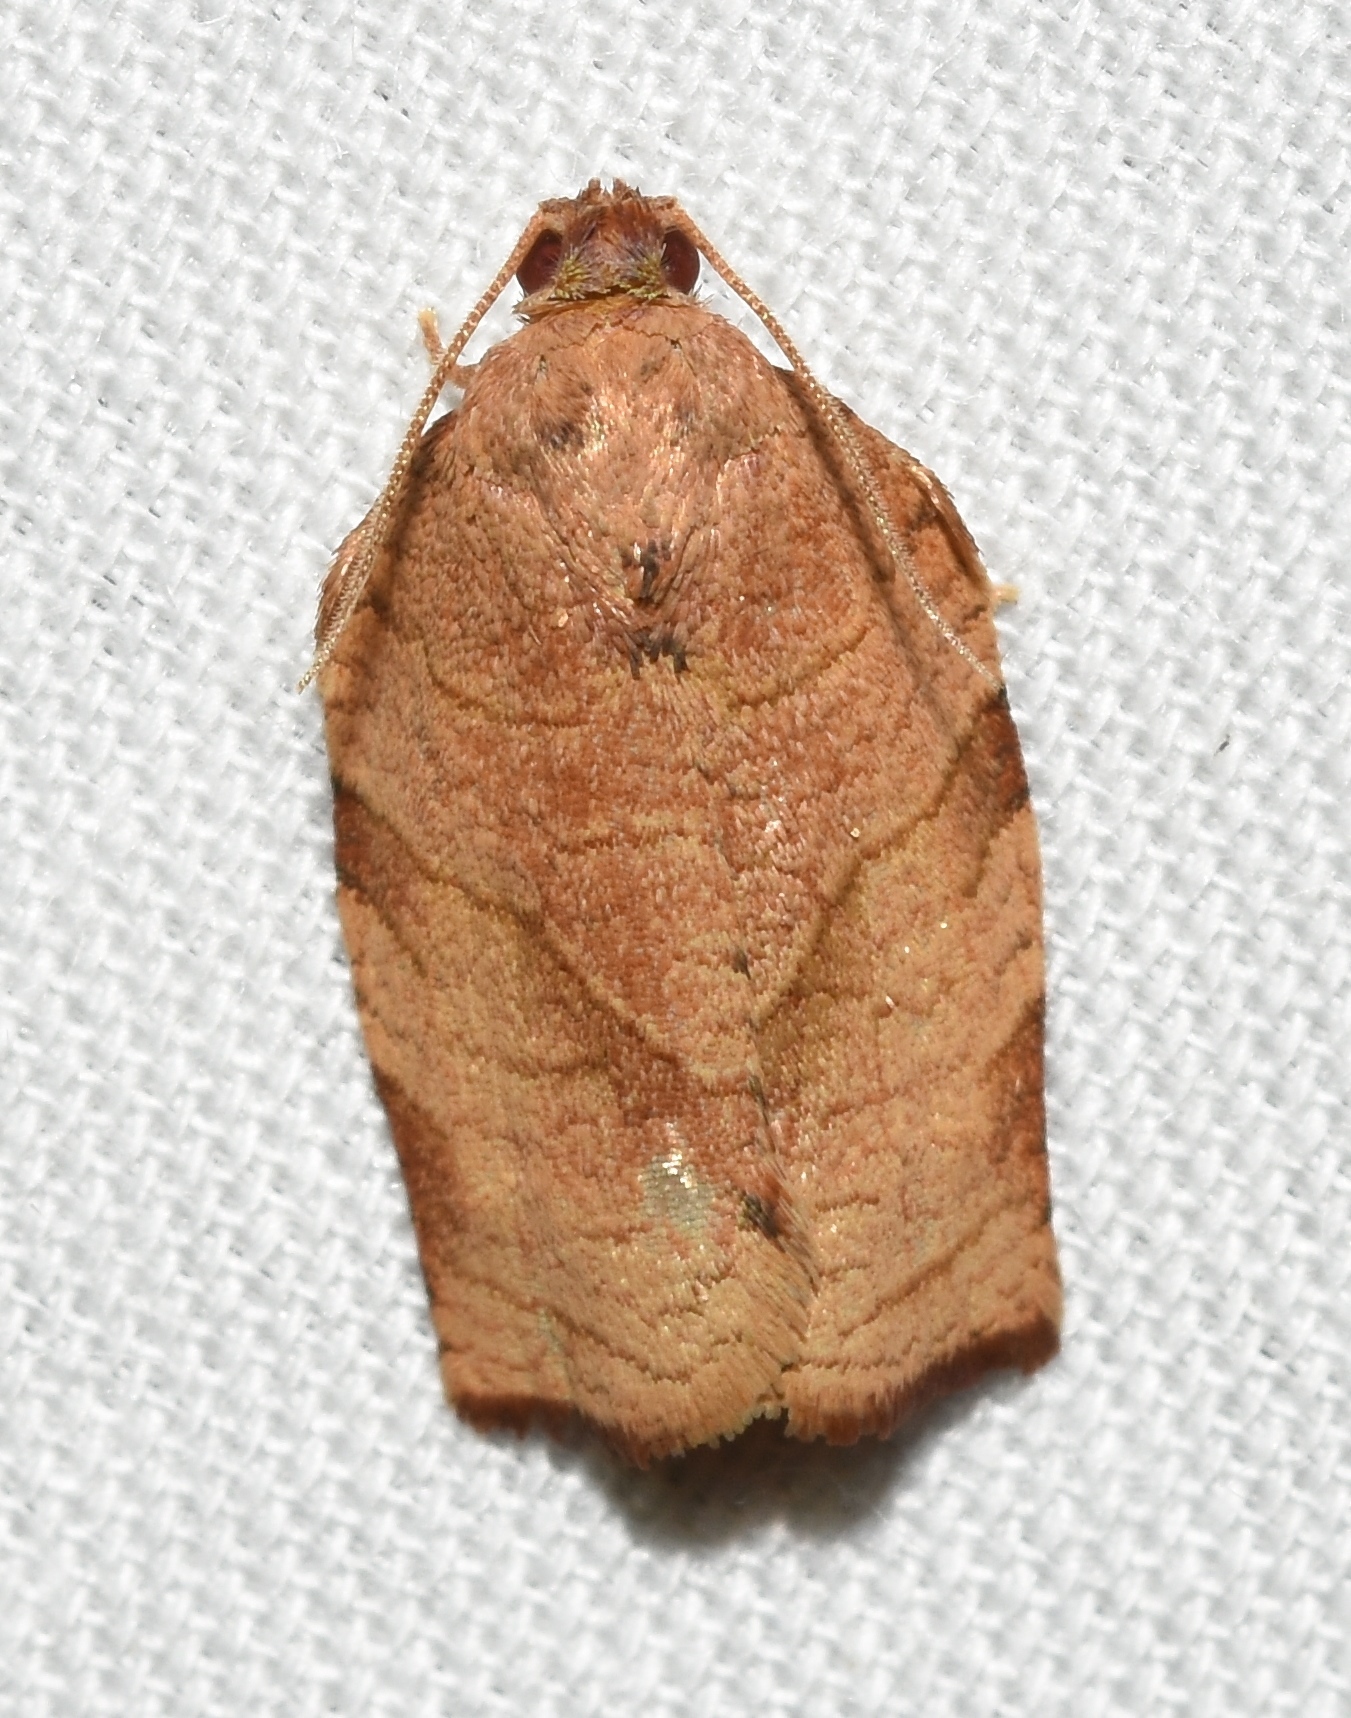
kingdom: Animalia
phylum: Arthropoda
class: Insecta
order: Lepidoptera
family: Tortricidae
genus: Choristoneura
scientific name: Choristoneura rosaceana
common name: Oblique-banded leafroller moth
